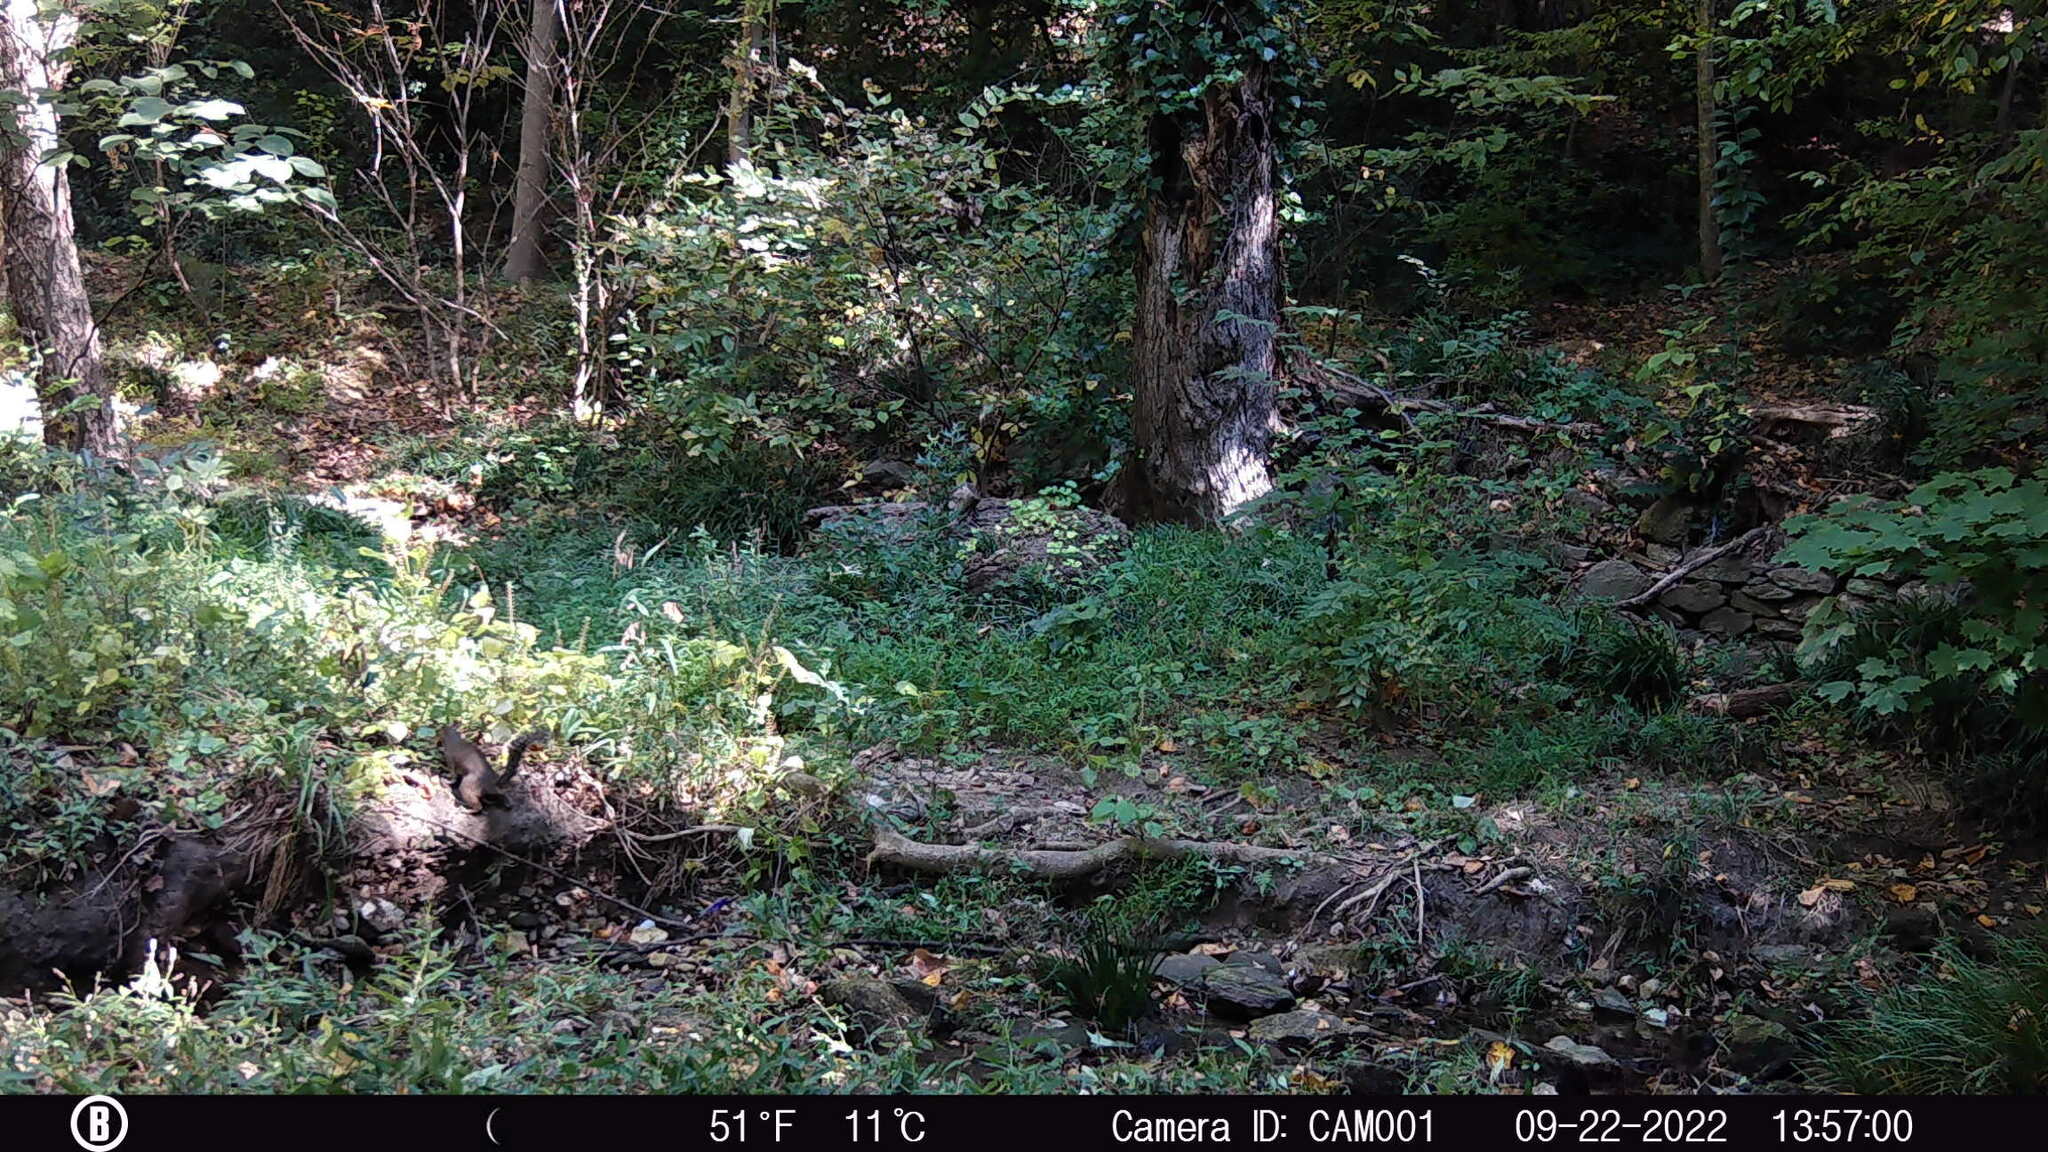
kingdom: Animalia
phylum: Chordata
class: Mammalia
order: Rodentia
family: Sciuridae
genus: Sciurus
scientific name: Sciurus carolinensis
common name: Eastern gray squirrel
